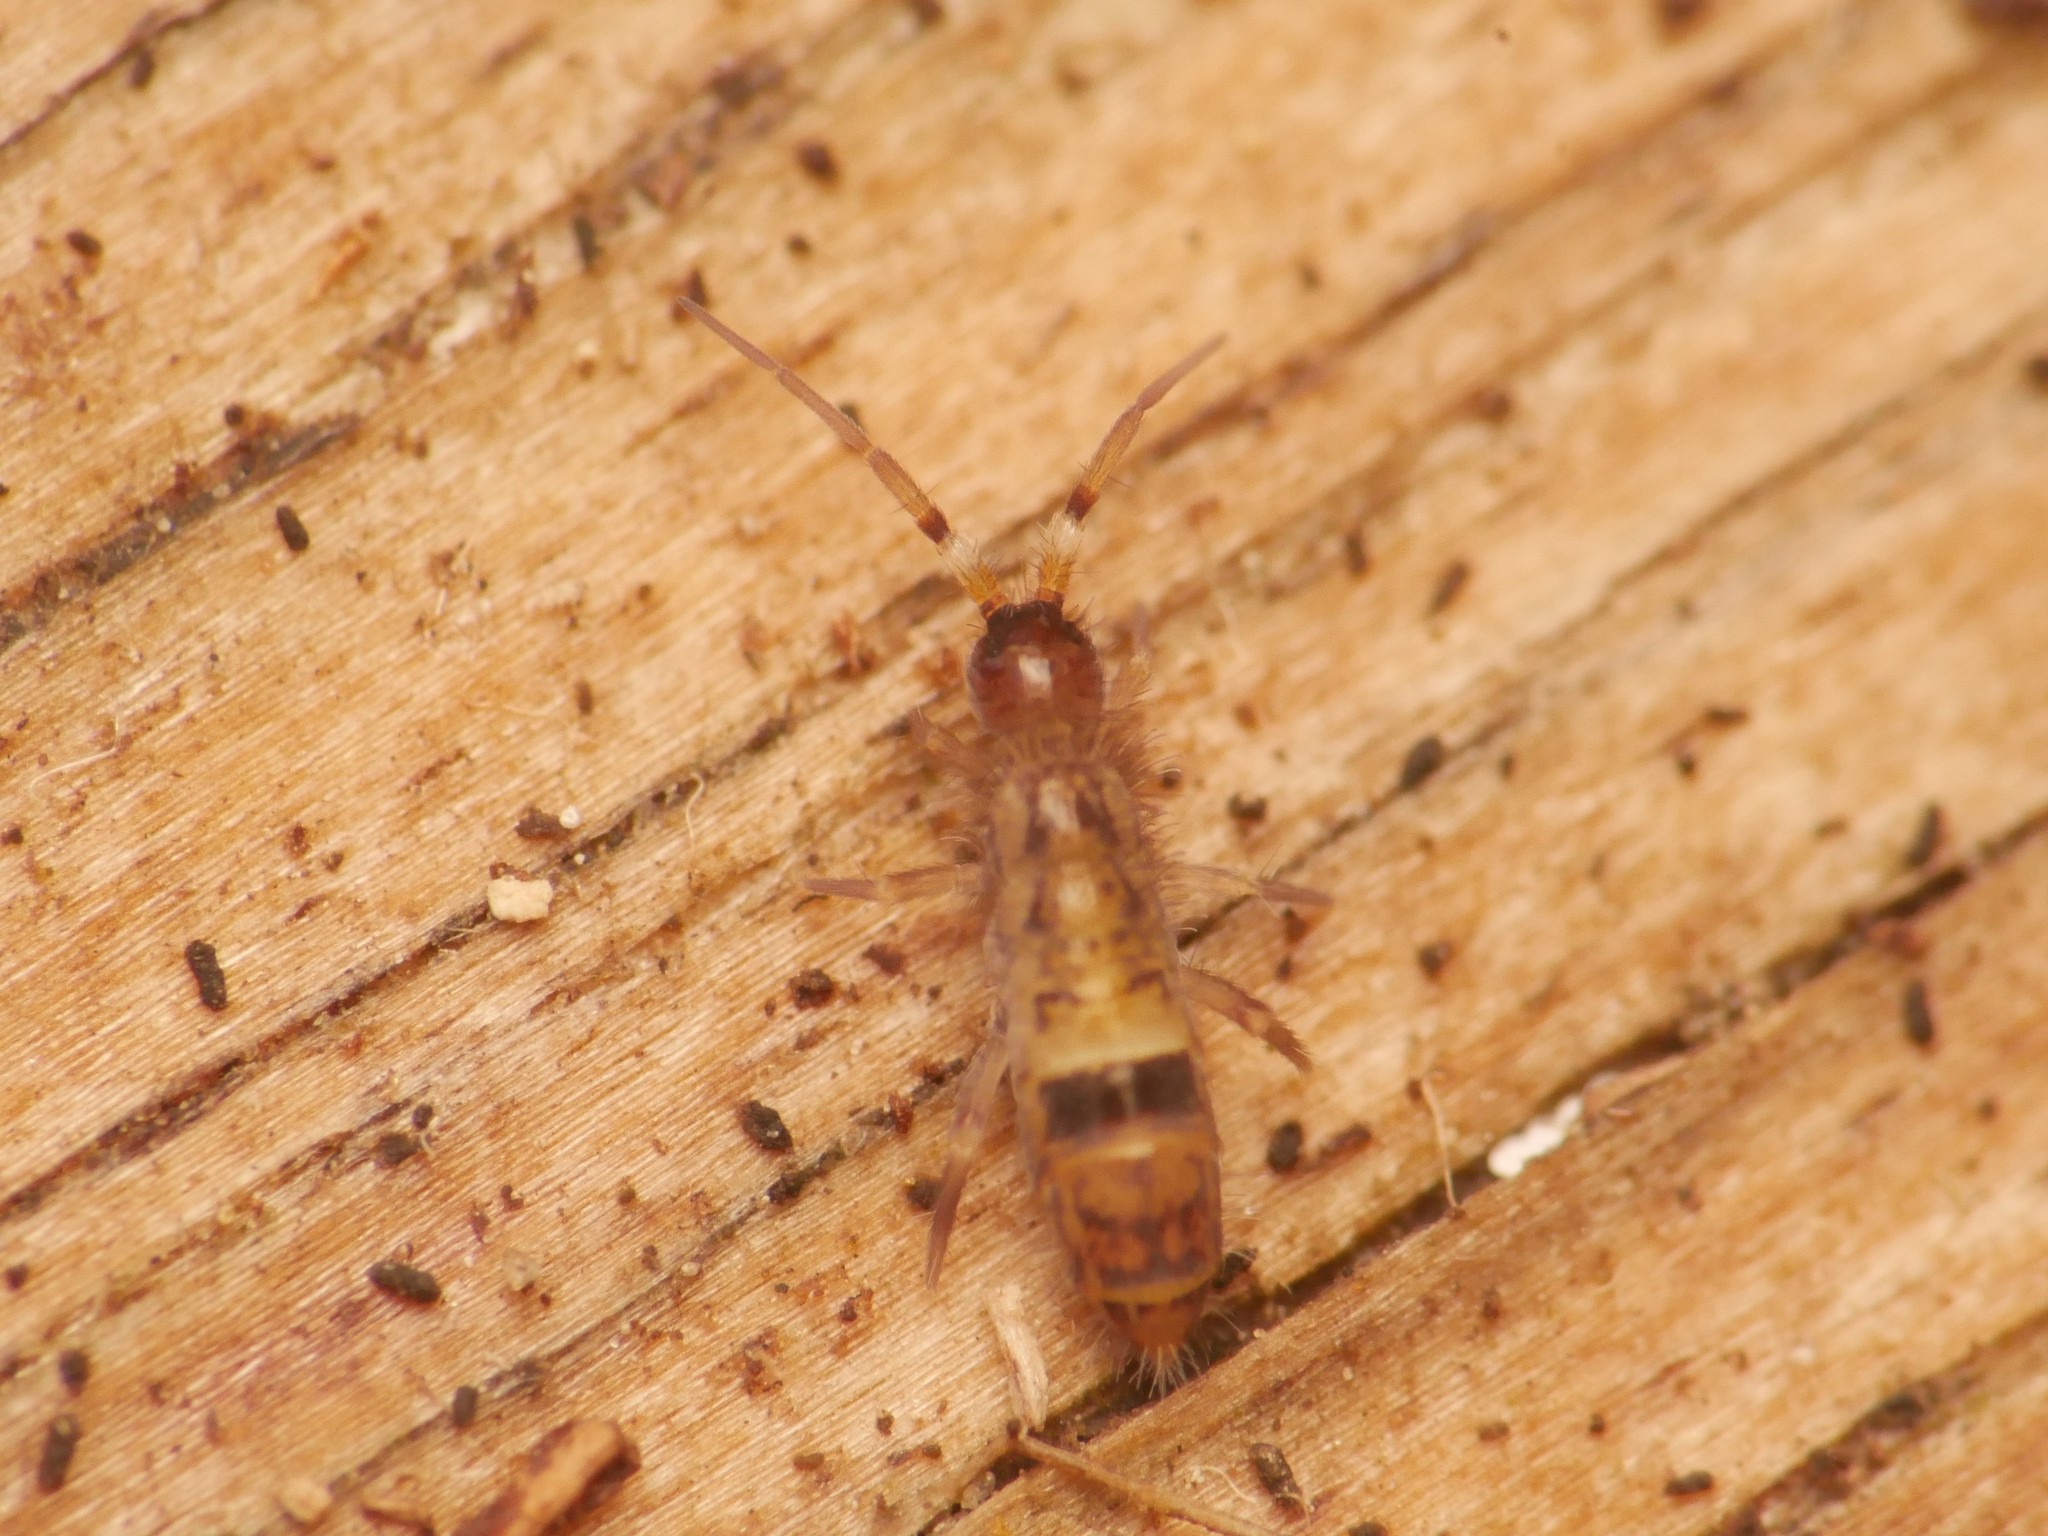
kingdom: Animalia
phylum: Arthropoda
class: Collembola
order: Entomobryomorpha
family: Orchesellidae
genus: Orchesella
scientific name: Orchesella cincta
